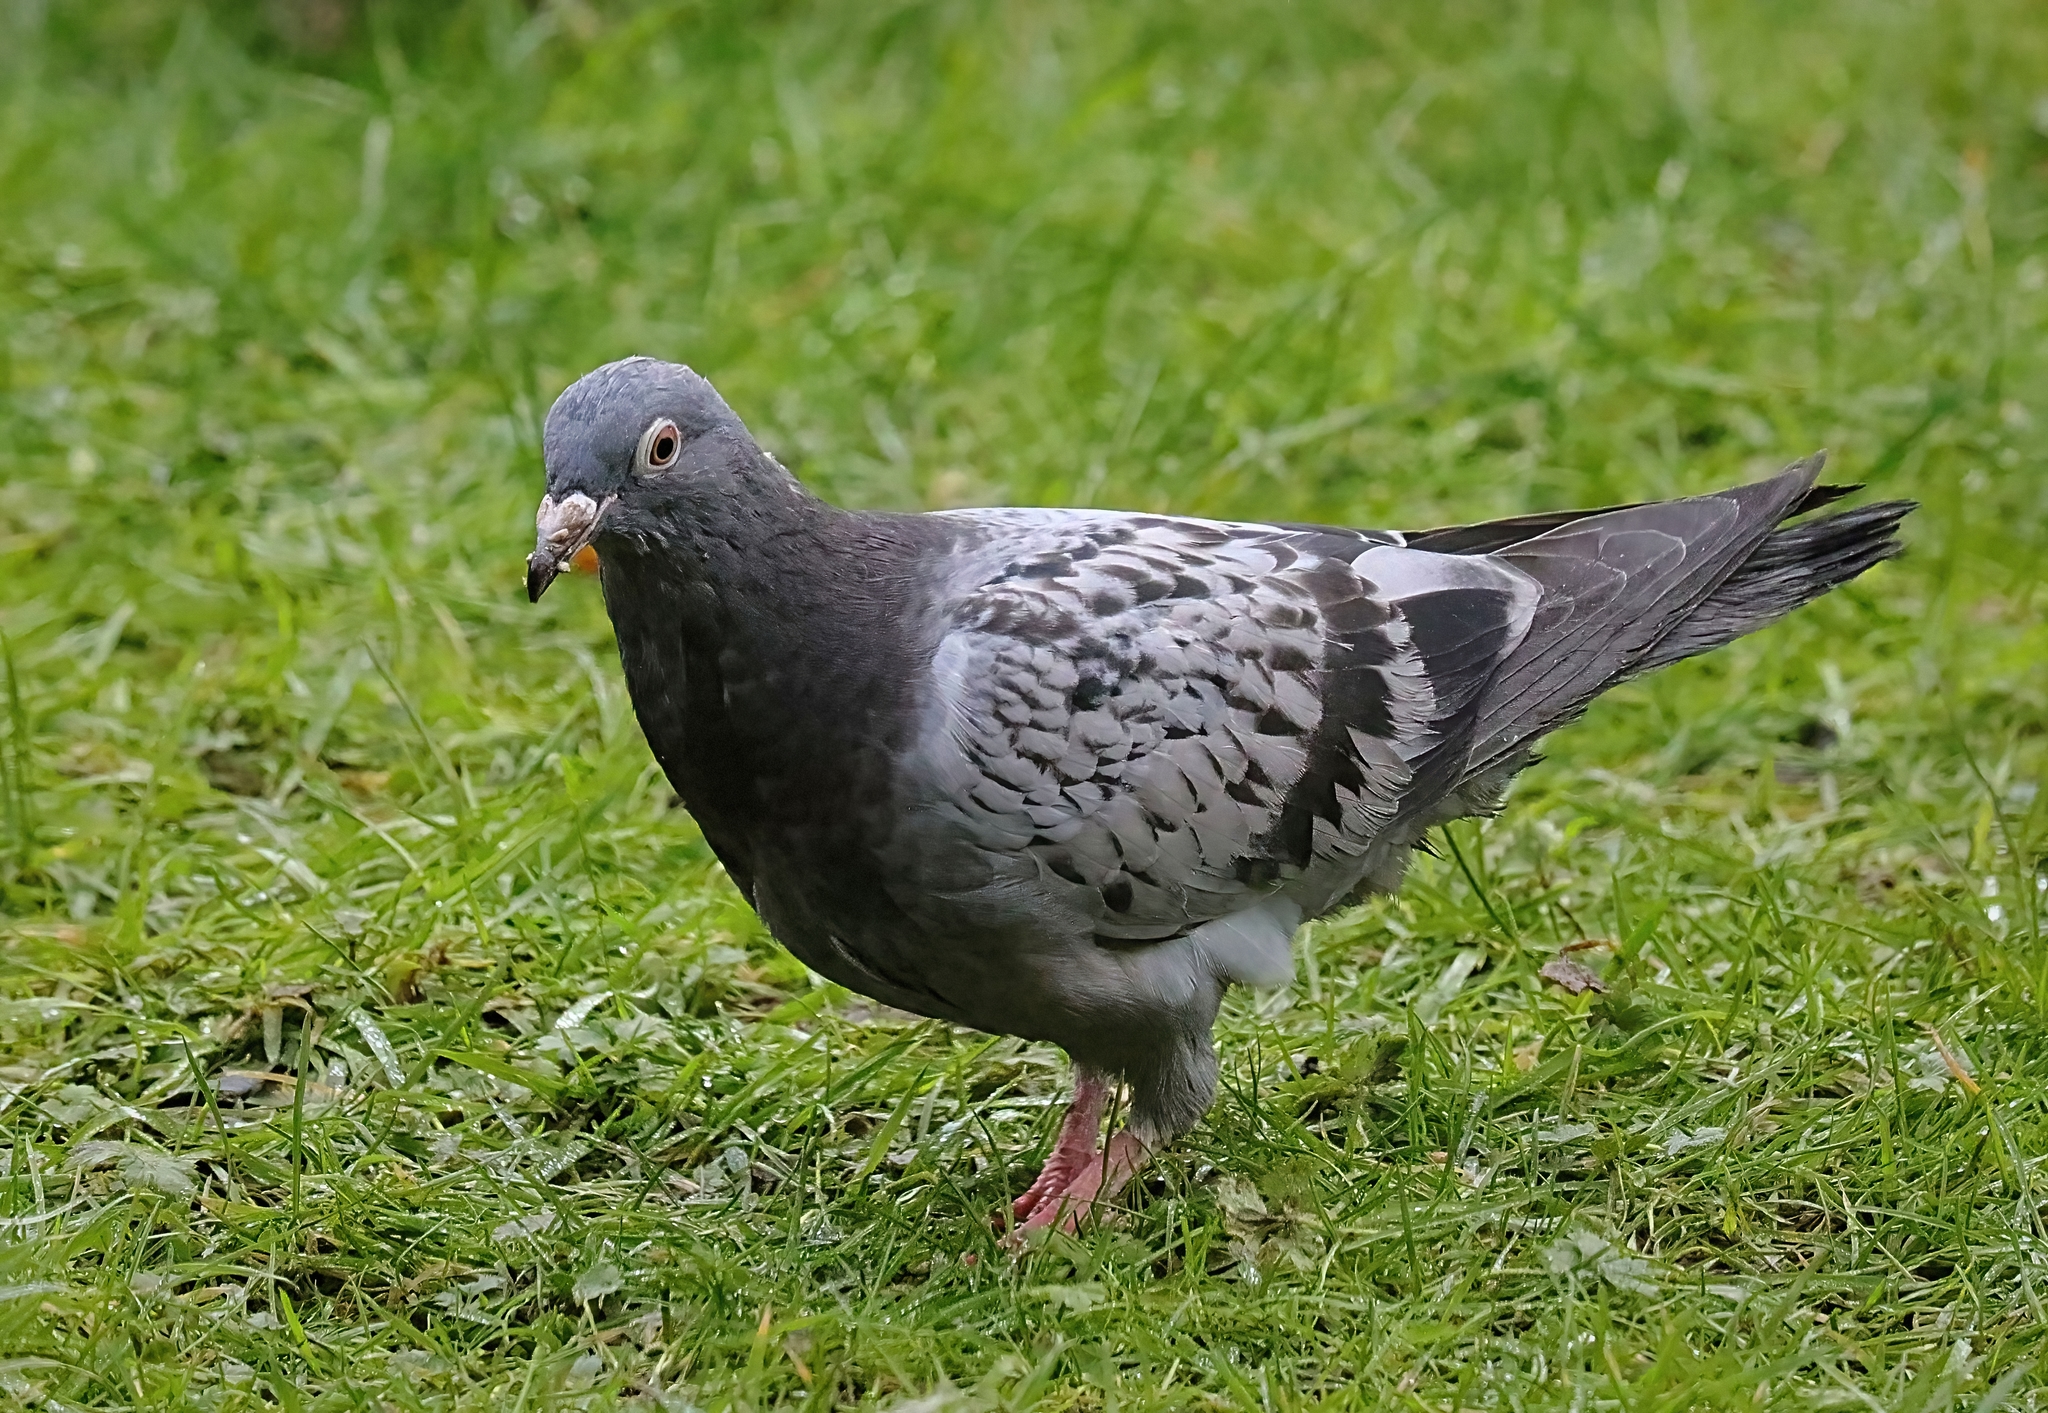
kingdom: Animalia
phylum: Chordata
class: Aves
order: Columbiformes
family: Columbidae
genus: Columba
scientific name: Columba livia
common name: Rock pigeon
